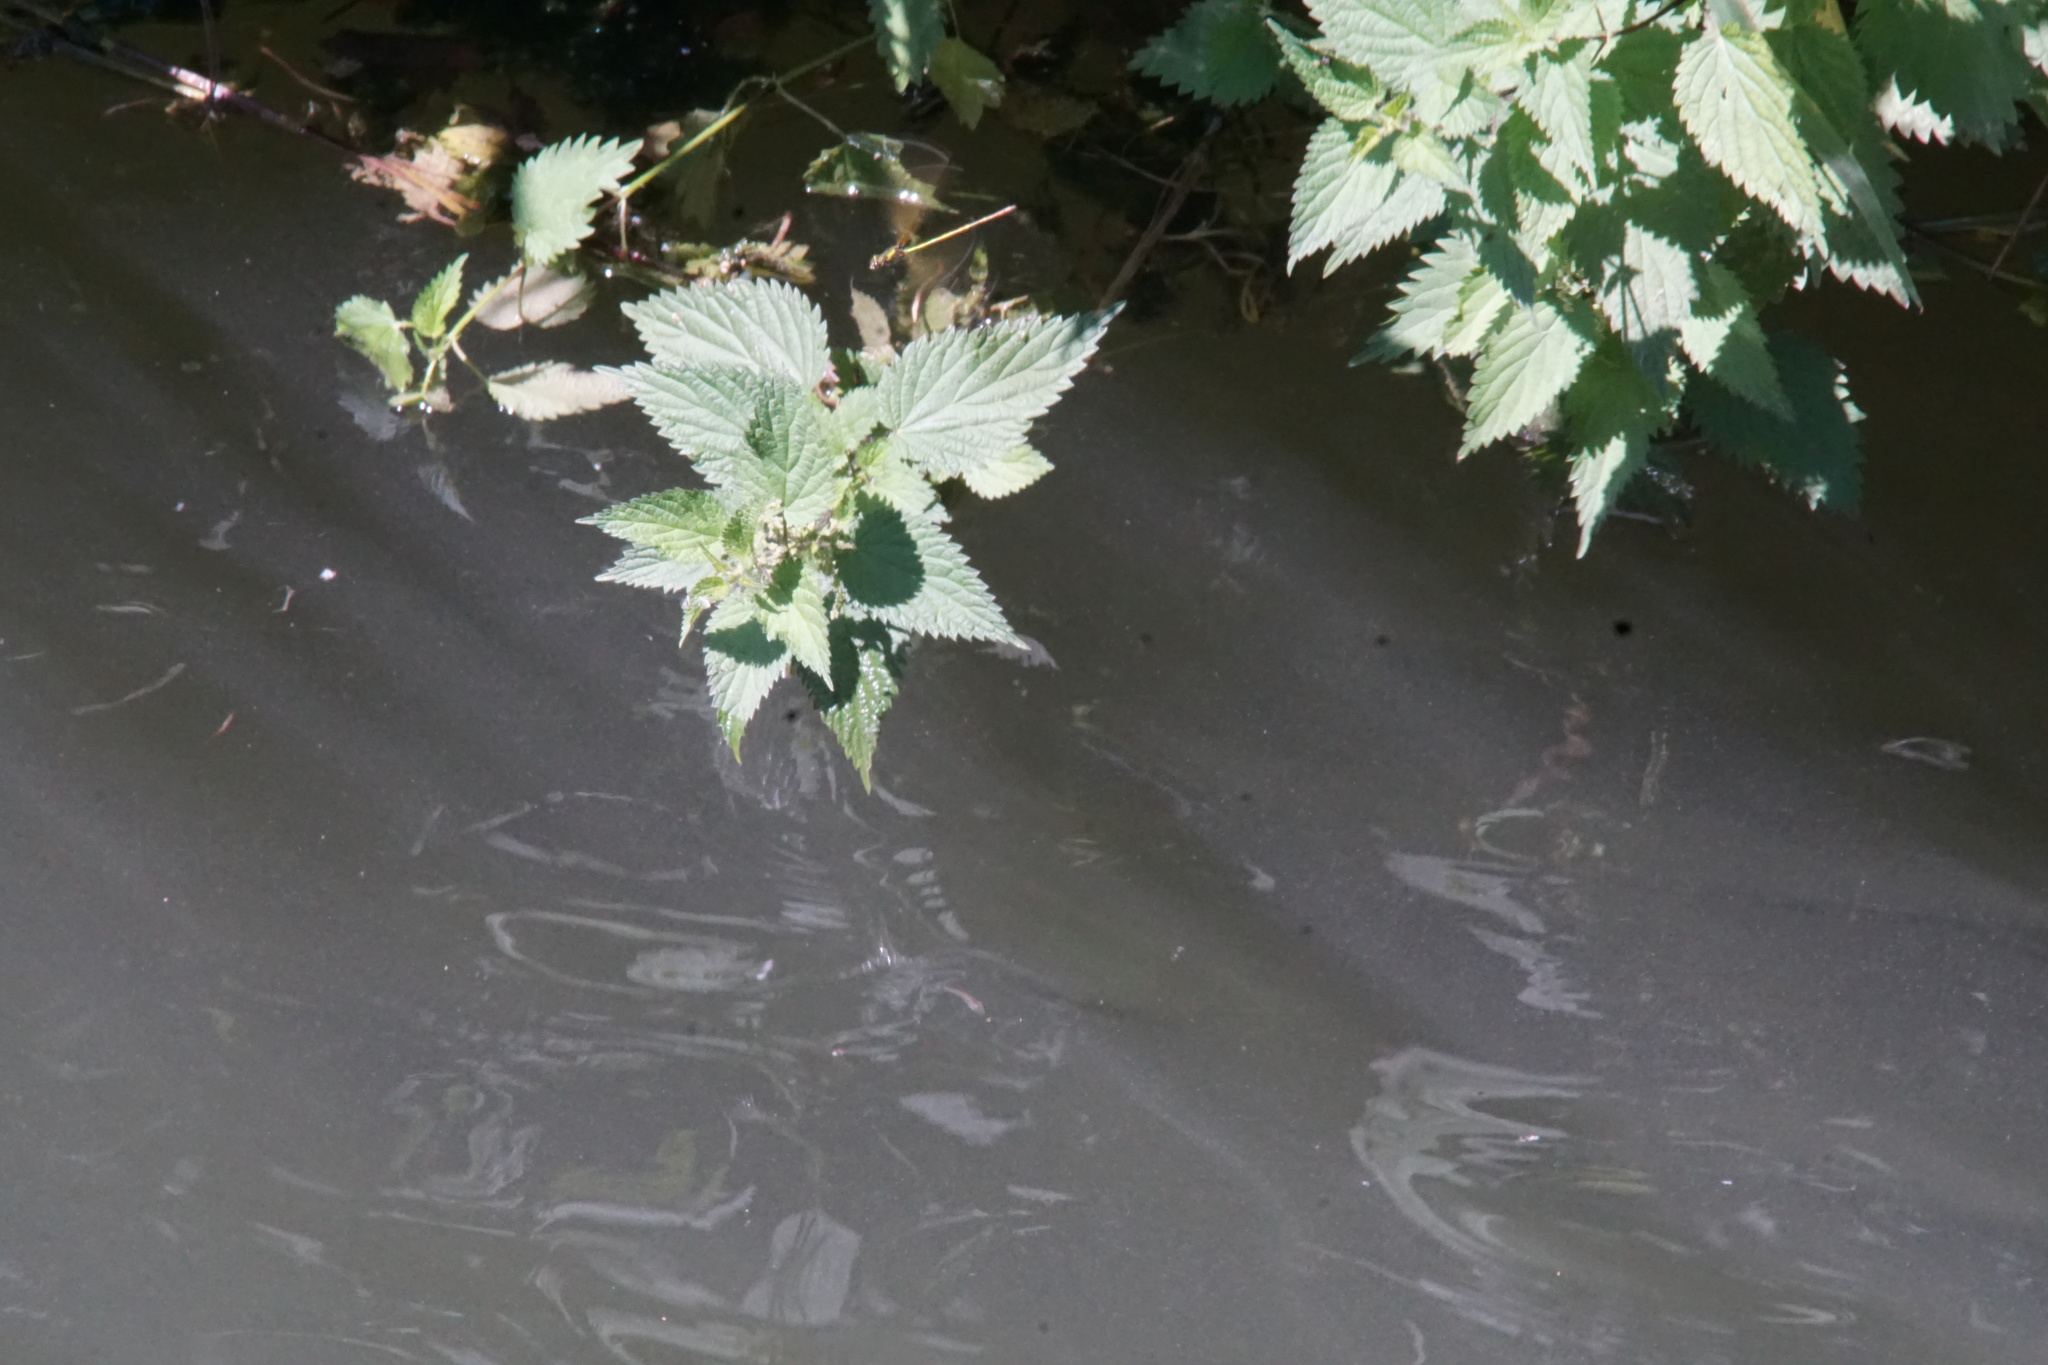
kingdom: Animalia
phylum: Arthropoda
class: Insecta
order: Odonata
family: Calopterygidae
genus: Calopteryx
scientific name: Calopteryx splendens
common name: Banded demoiselle
